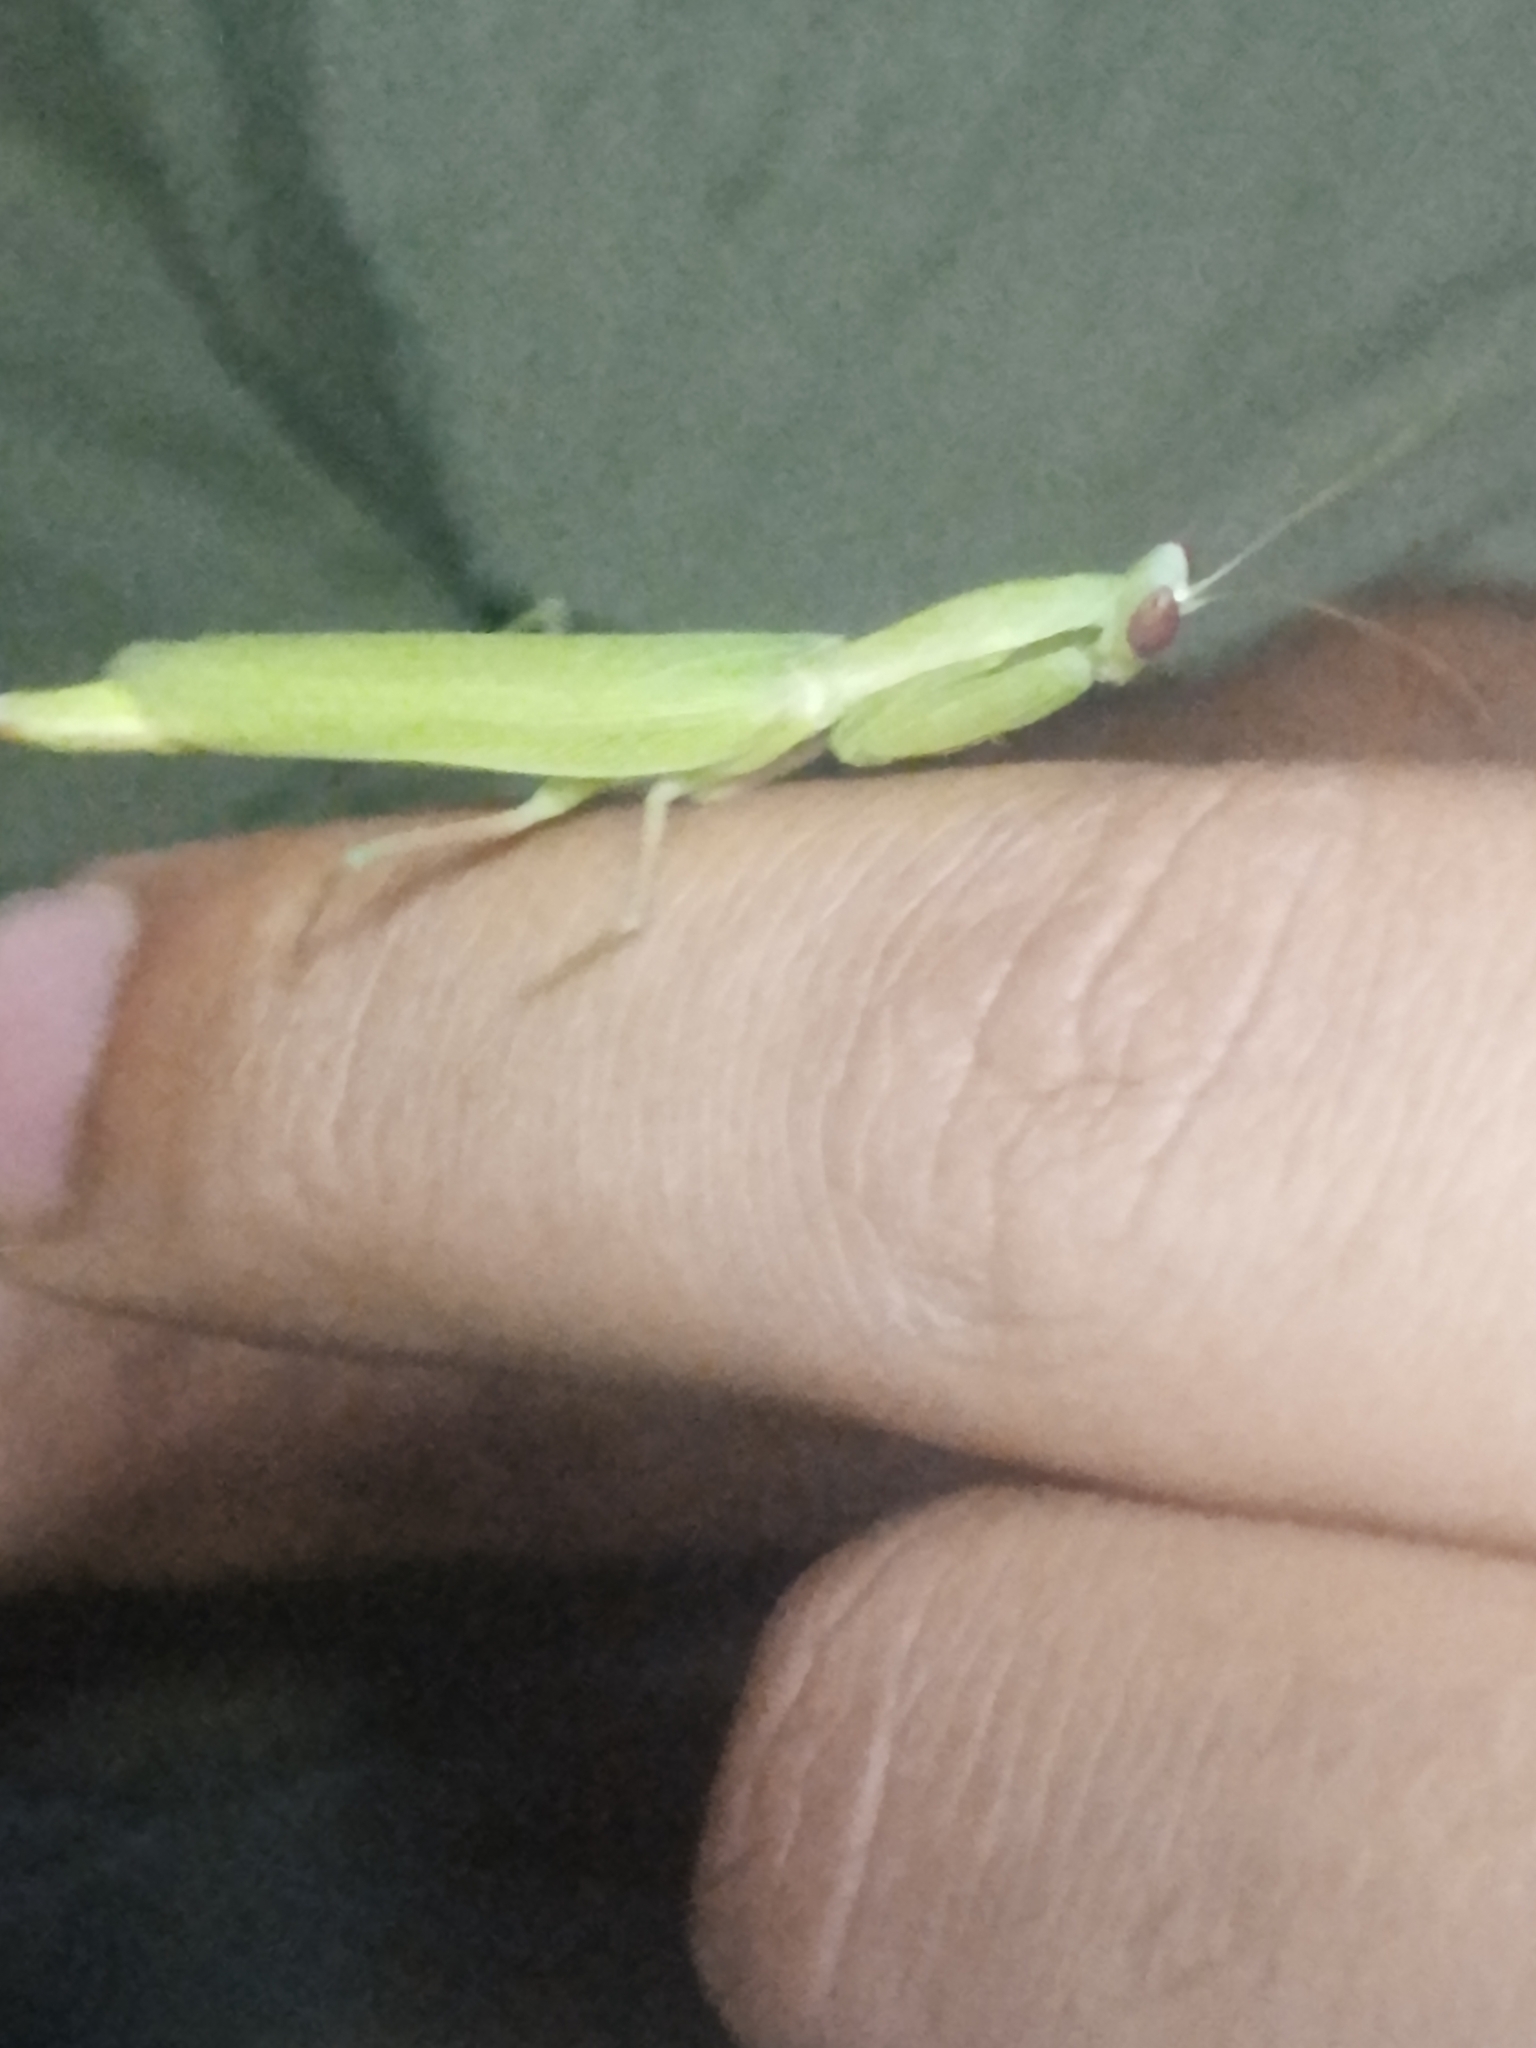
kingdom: Animalia
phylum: Arthropoda
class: Insecta
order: Mantodea
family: Eremiaphilidae
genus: Paroxyophthalmus
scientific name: Paroxyophthalmus nigericus
